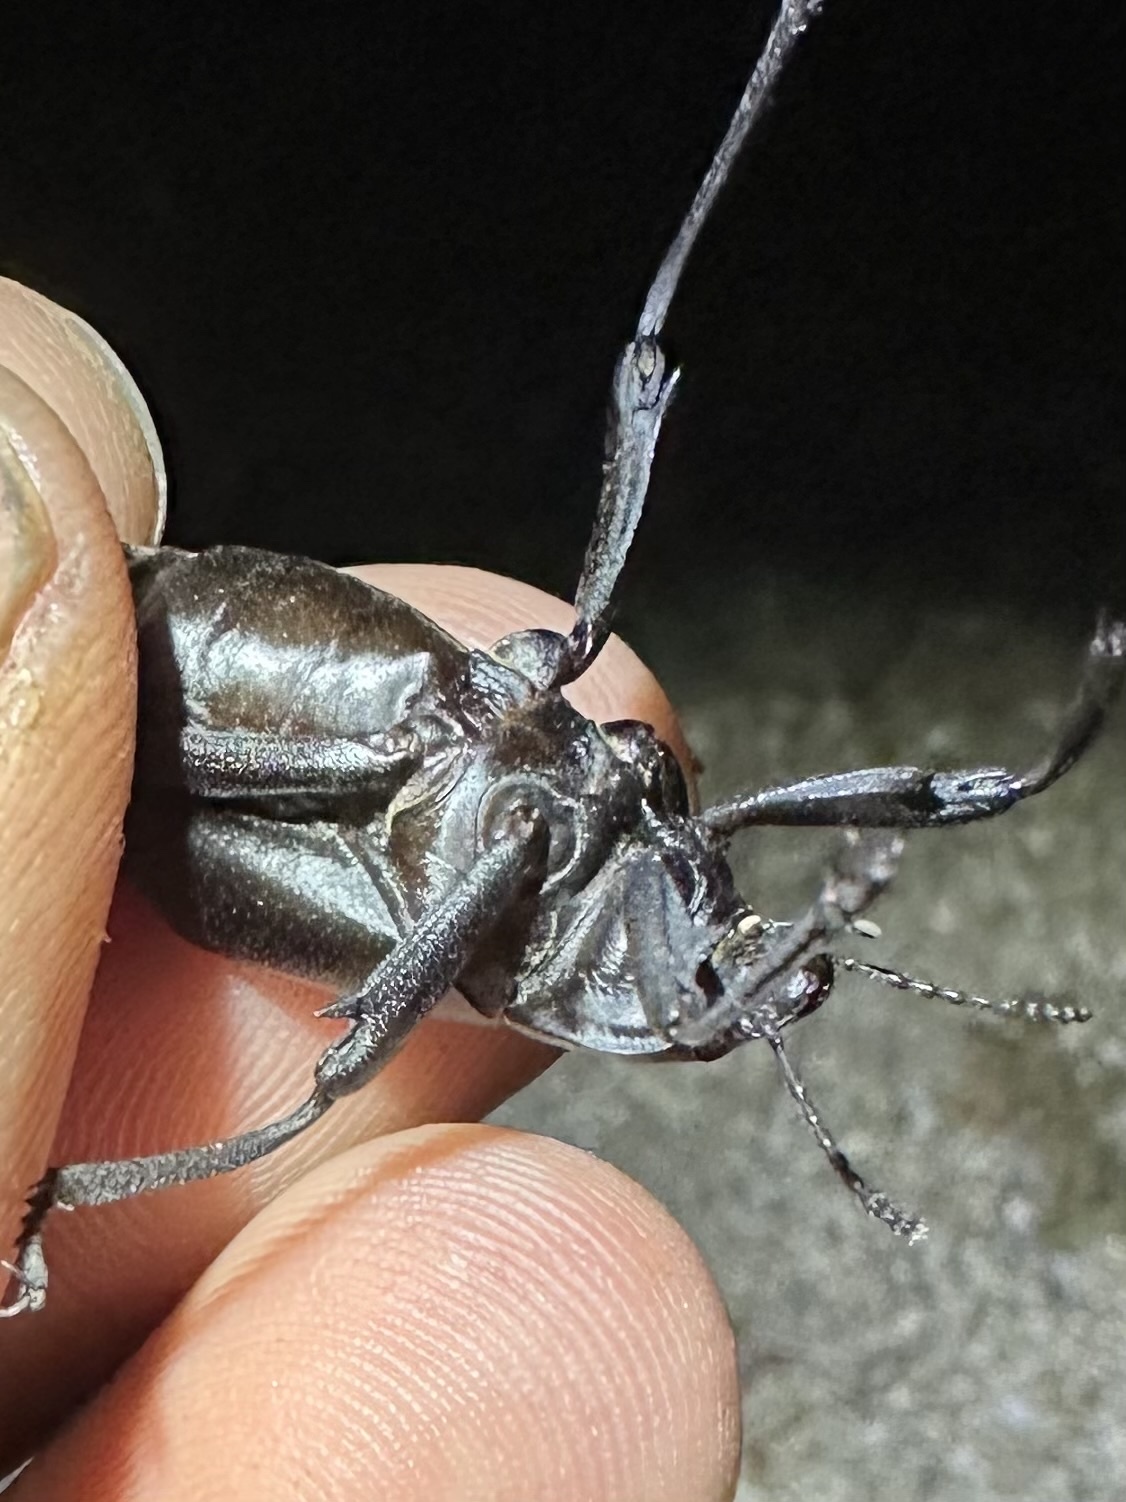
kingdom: Animalia
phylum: Arthropoda
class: Insecta
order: Coleoptera
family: Tenebrionidae
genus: Eleodes
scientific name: Eleodes armata
